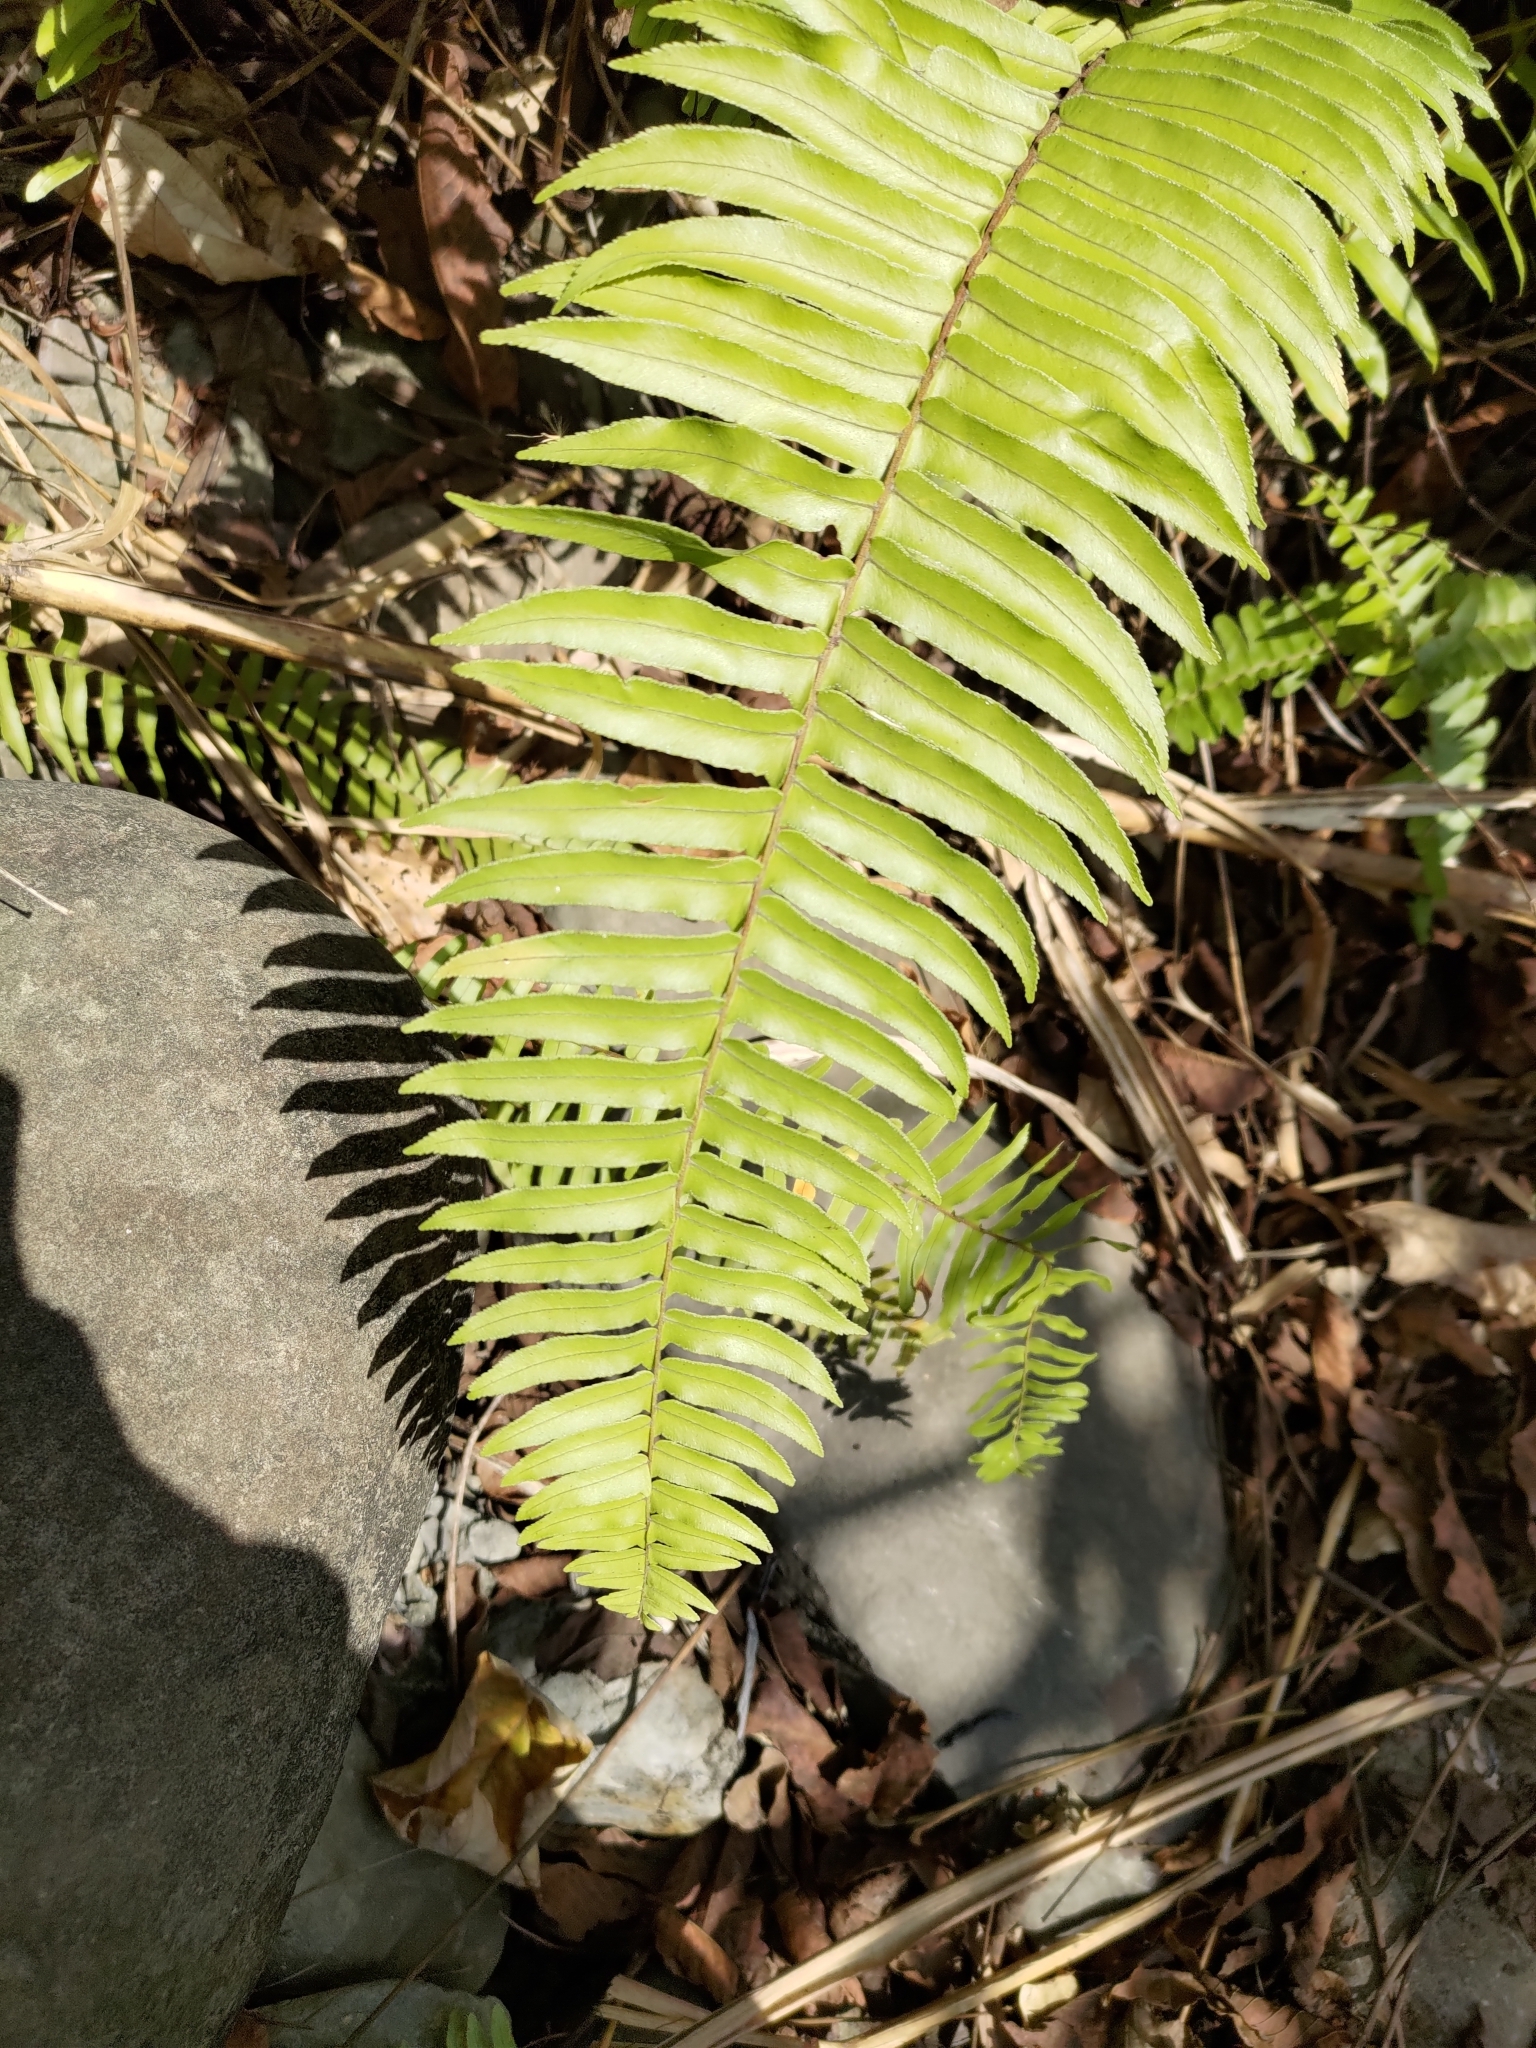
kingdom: Plantae
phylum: Tracheophyta
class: Polypodiopsida
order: Polypodiales
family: Nephrolepidaceae
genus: Nephrolepis
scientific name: Nephrolepis brownii
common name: Asian swordfern
